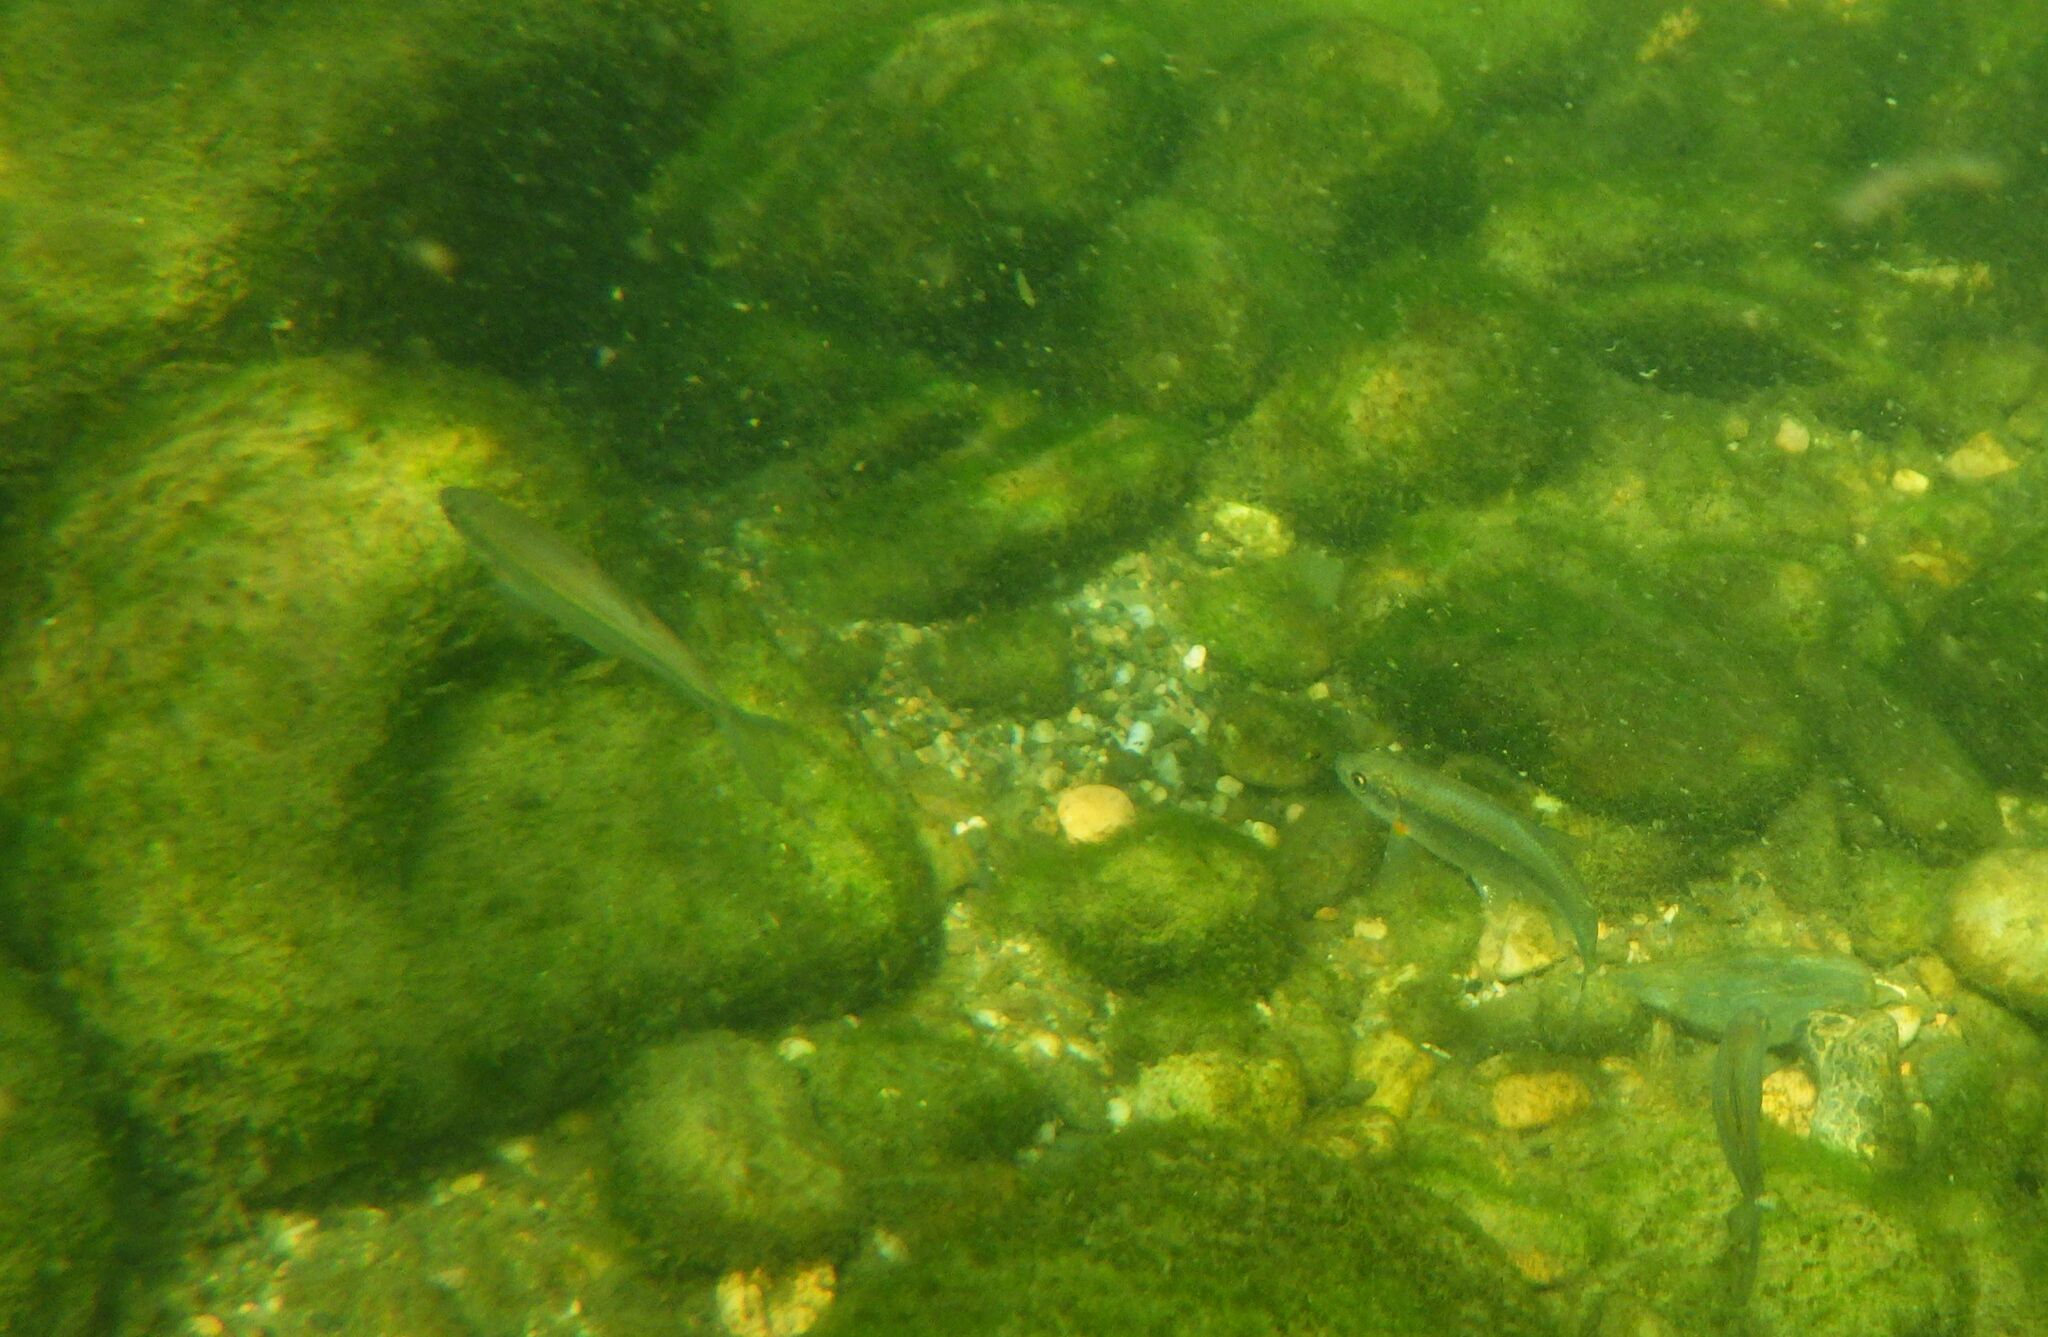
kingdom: Animalia
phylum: Chordata
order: Cypriniformes
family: Cyprinidae
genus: Alburnoides
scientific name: Alburnoides bipunctatus
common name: Spirlin
